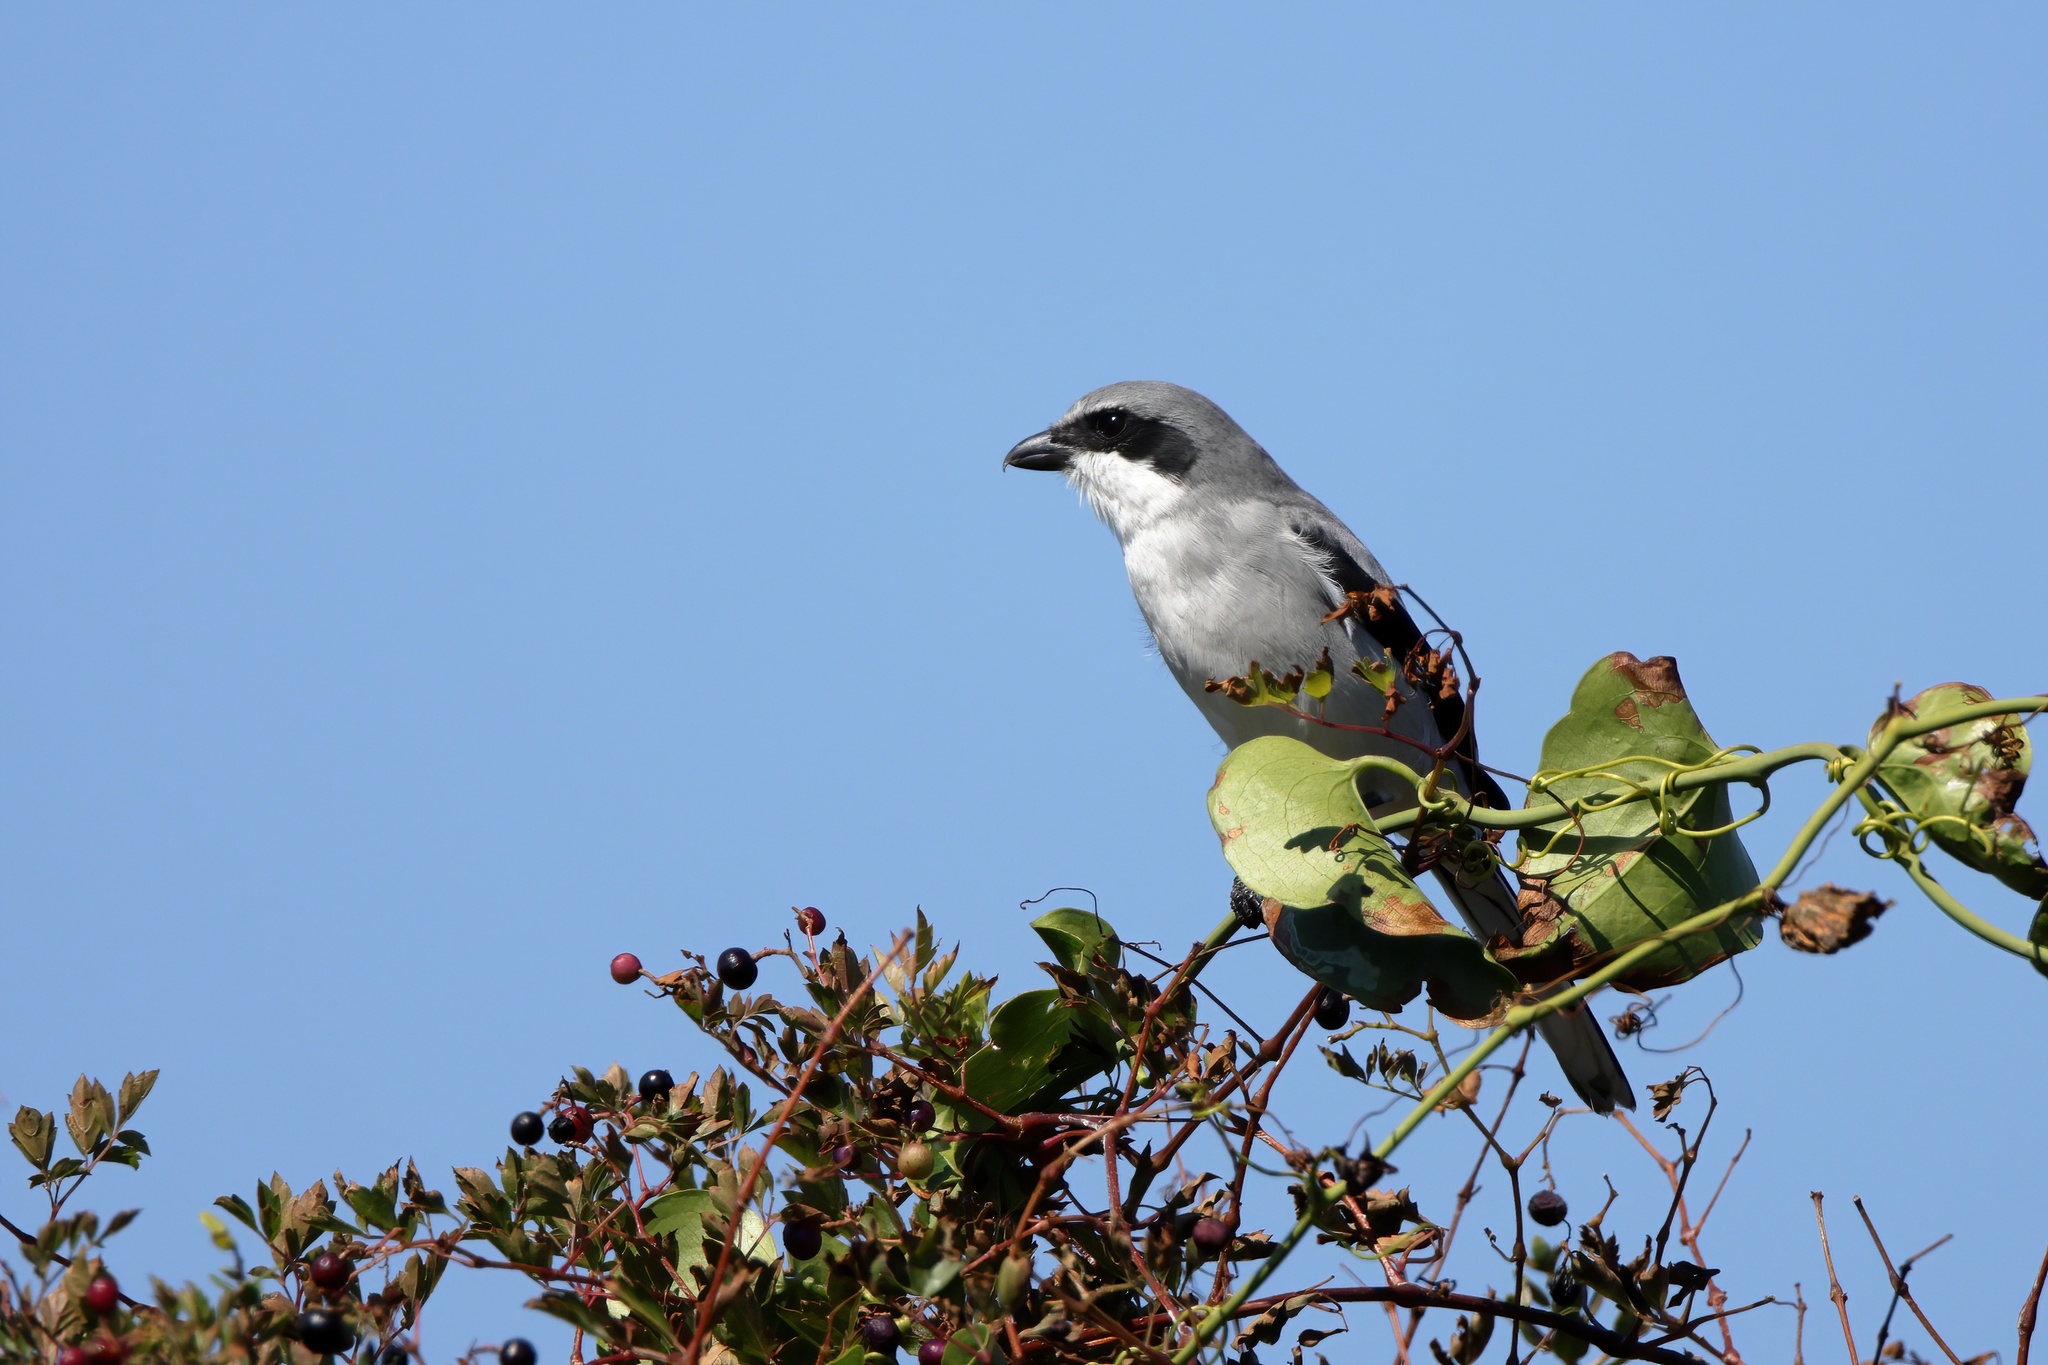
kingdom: Animalia
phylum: Chordata
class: Aves
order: Passeriformes
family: Laniidae
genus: Lanius
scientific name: Lanius ludovicianus
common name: Loggerhead shrike
